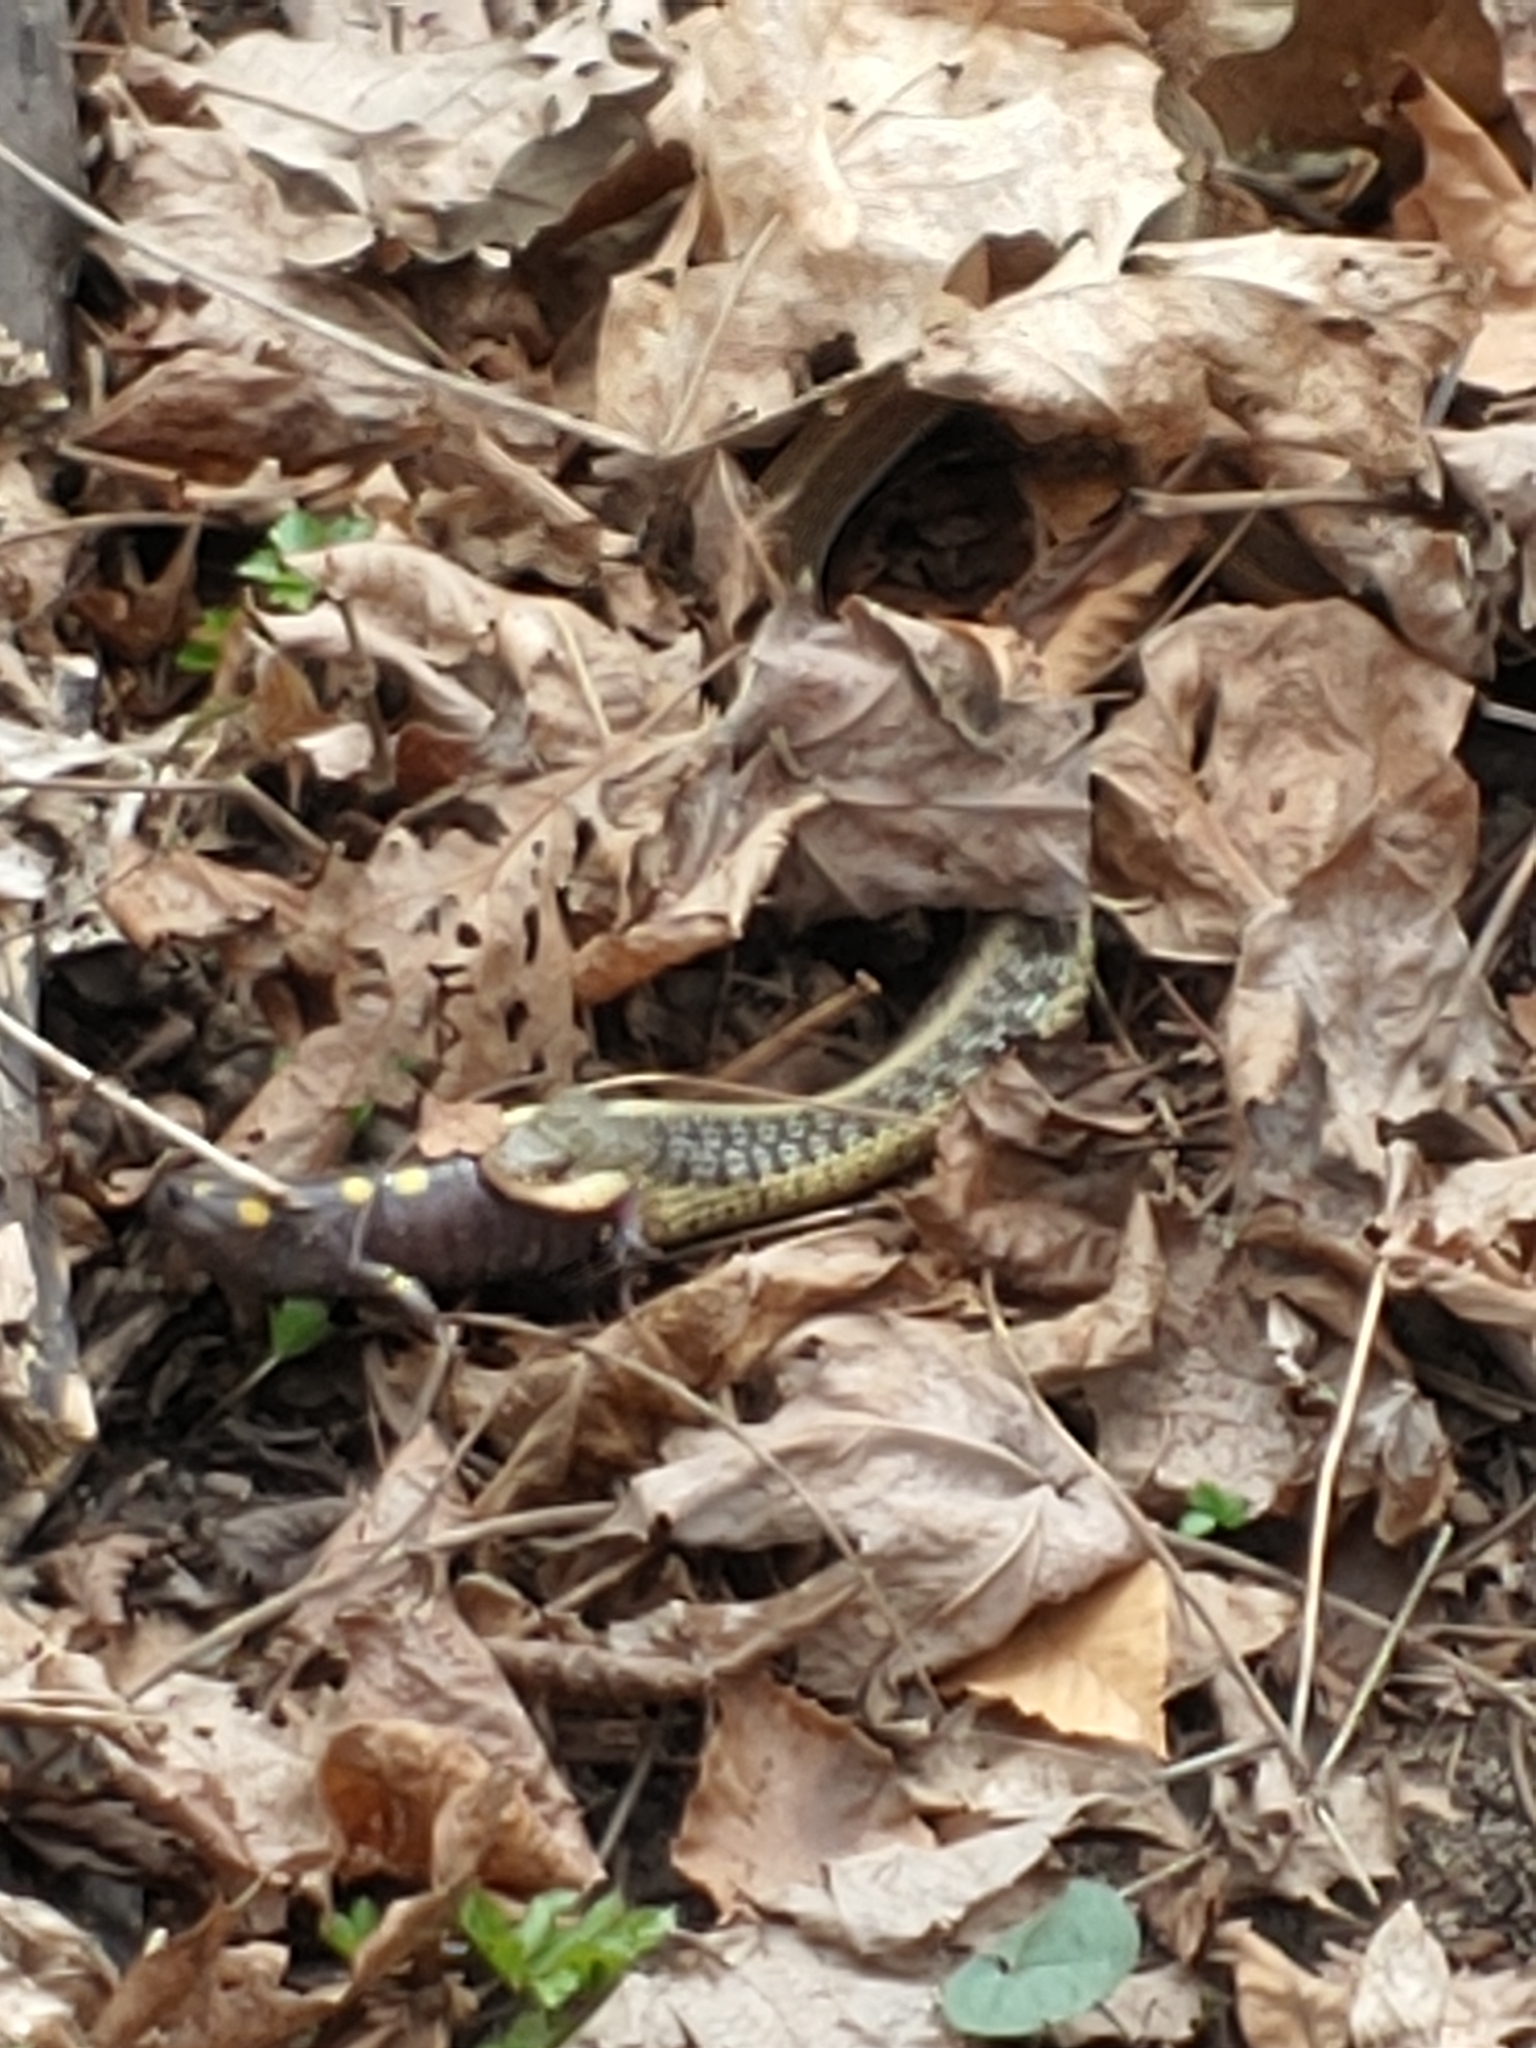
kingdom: Animalia
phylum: Chordata
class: Amphibia
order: Caudata
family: Ambystomatidae
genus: Ambystoma
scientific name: Ambystoma maculatum
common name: Spotted salamander
